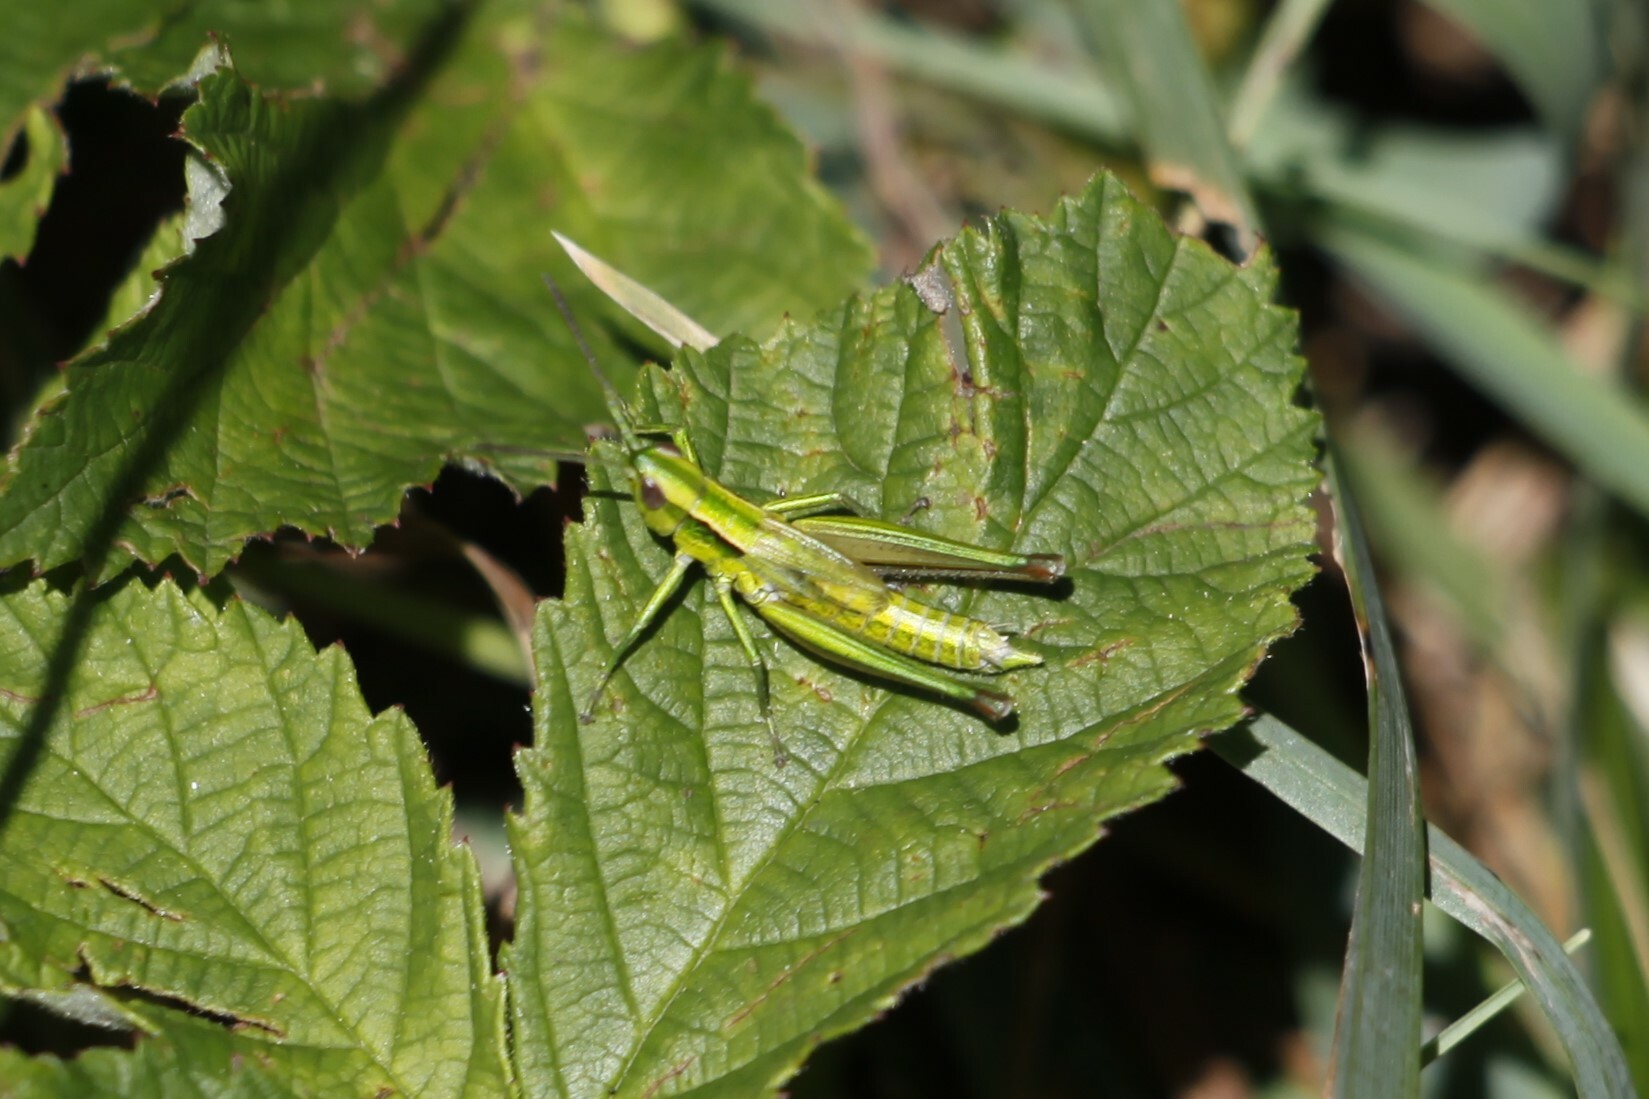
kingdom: Animalia
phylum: Arthropoda
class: Insecta
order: Orthoptera
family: Acrididae
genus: Euthystira
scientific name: Euthystira brachyptera
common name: Small gold grasshopper
